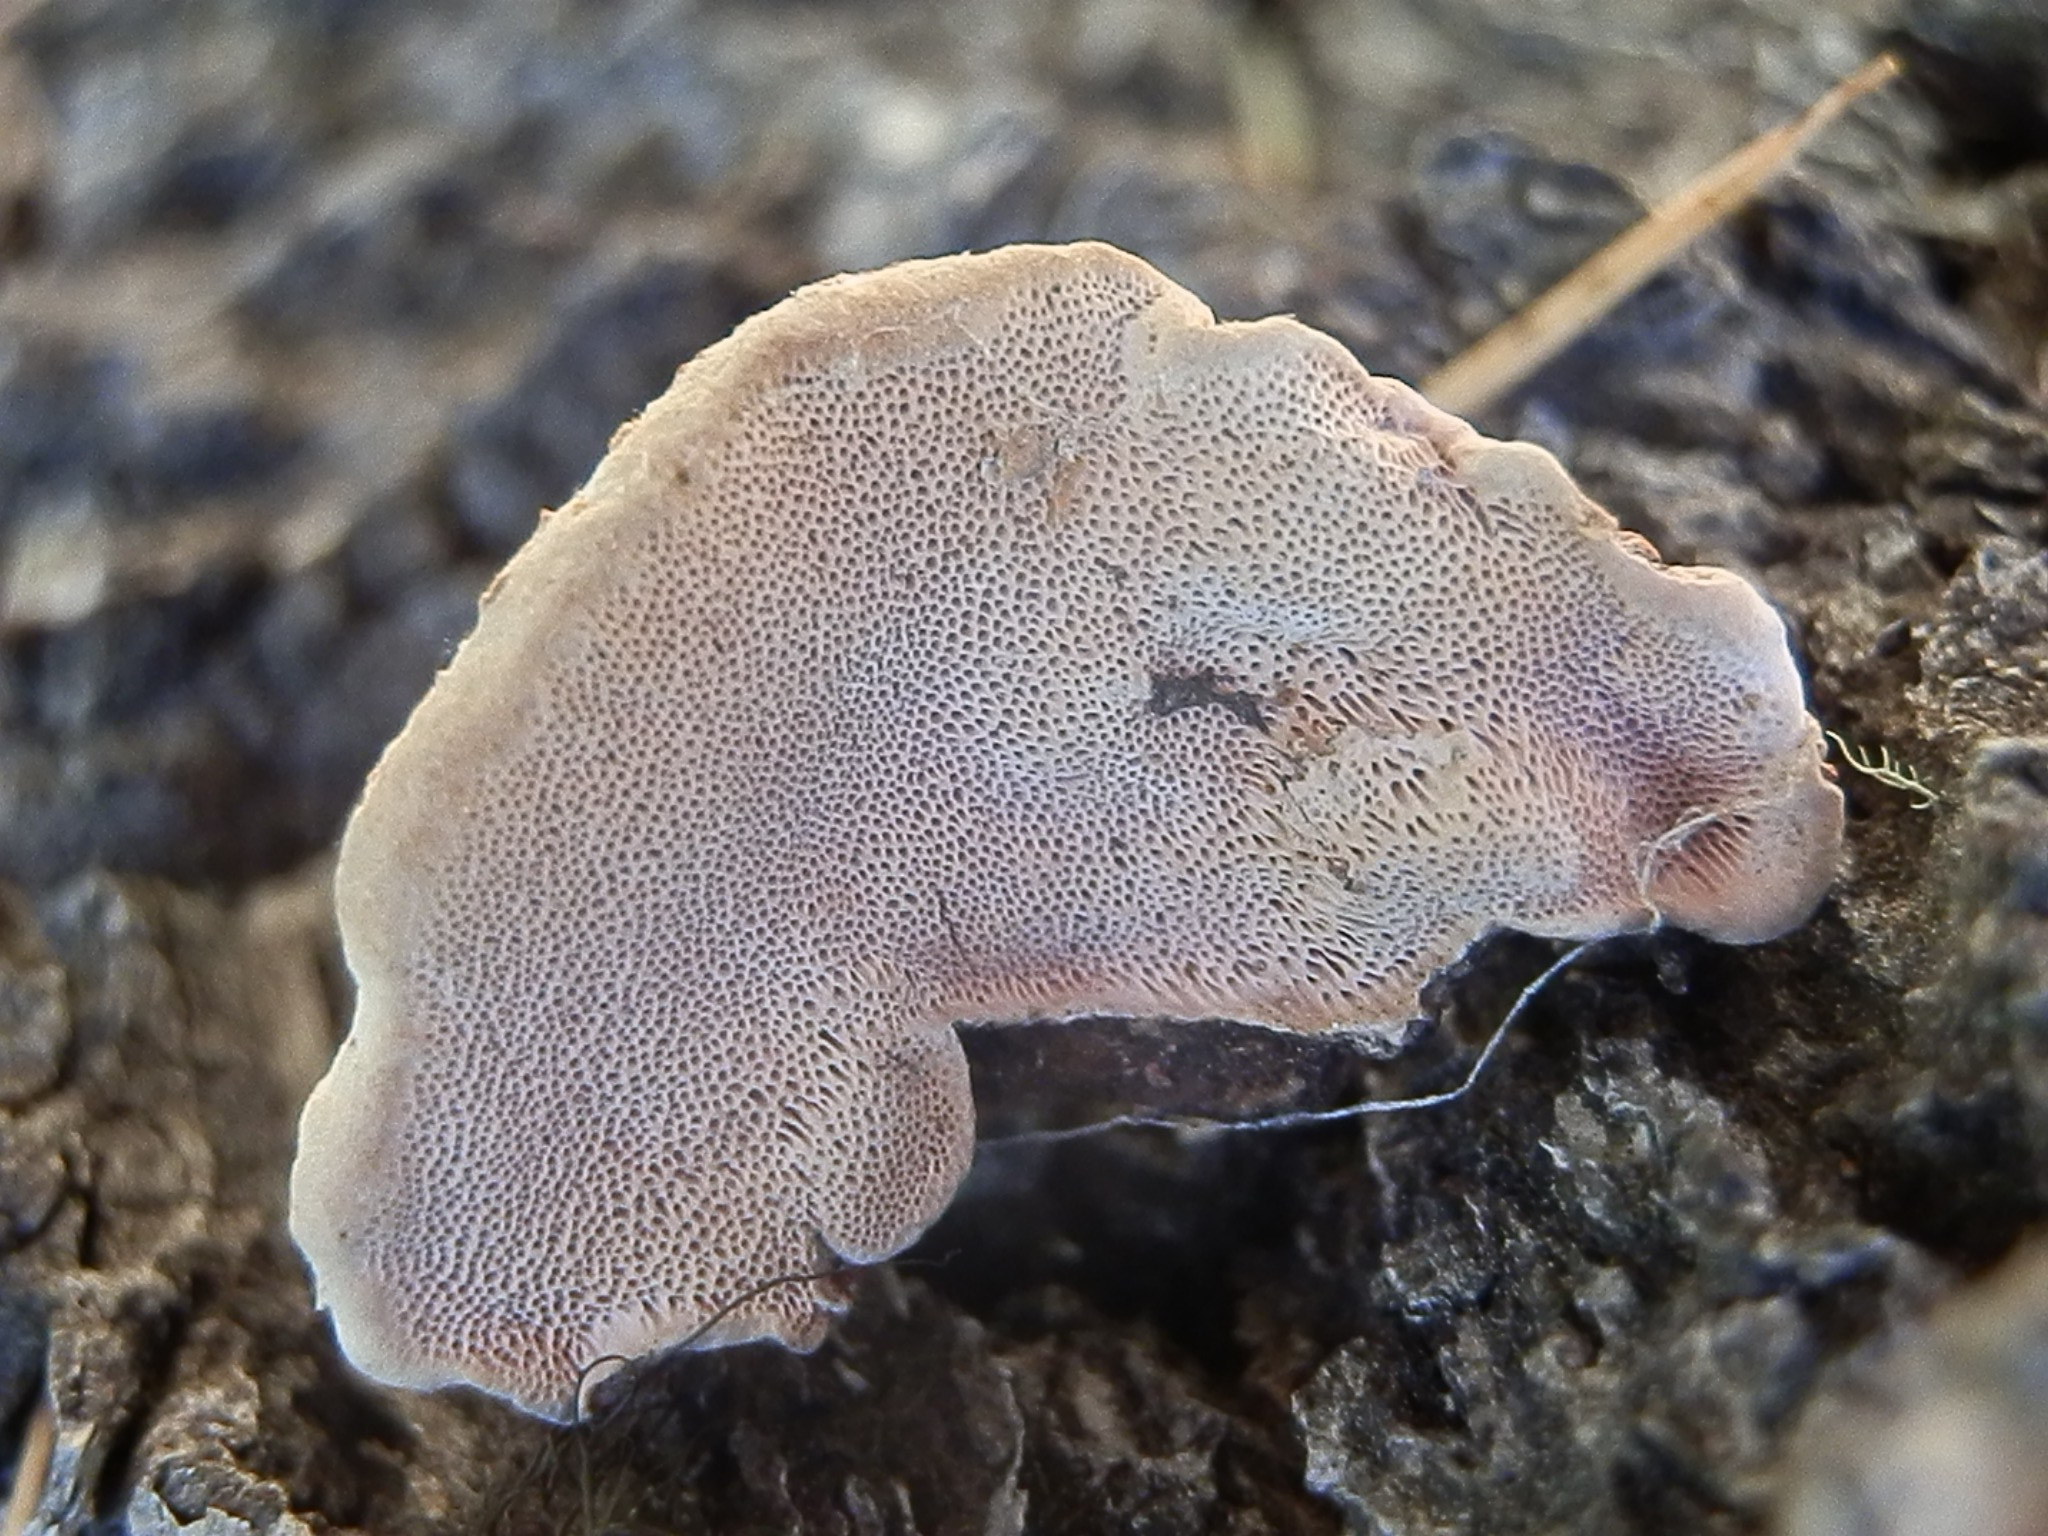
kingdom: Fungi
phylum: Basidiomycota
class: Agaricomycetes
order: Polyporales
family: Fomitopsidaceae
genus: Rhodofomes
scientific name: Rhodofomes cajanderi
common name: Rosy conk
